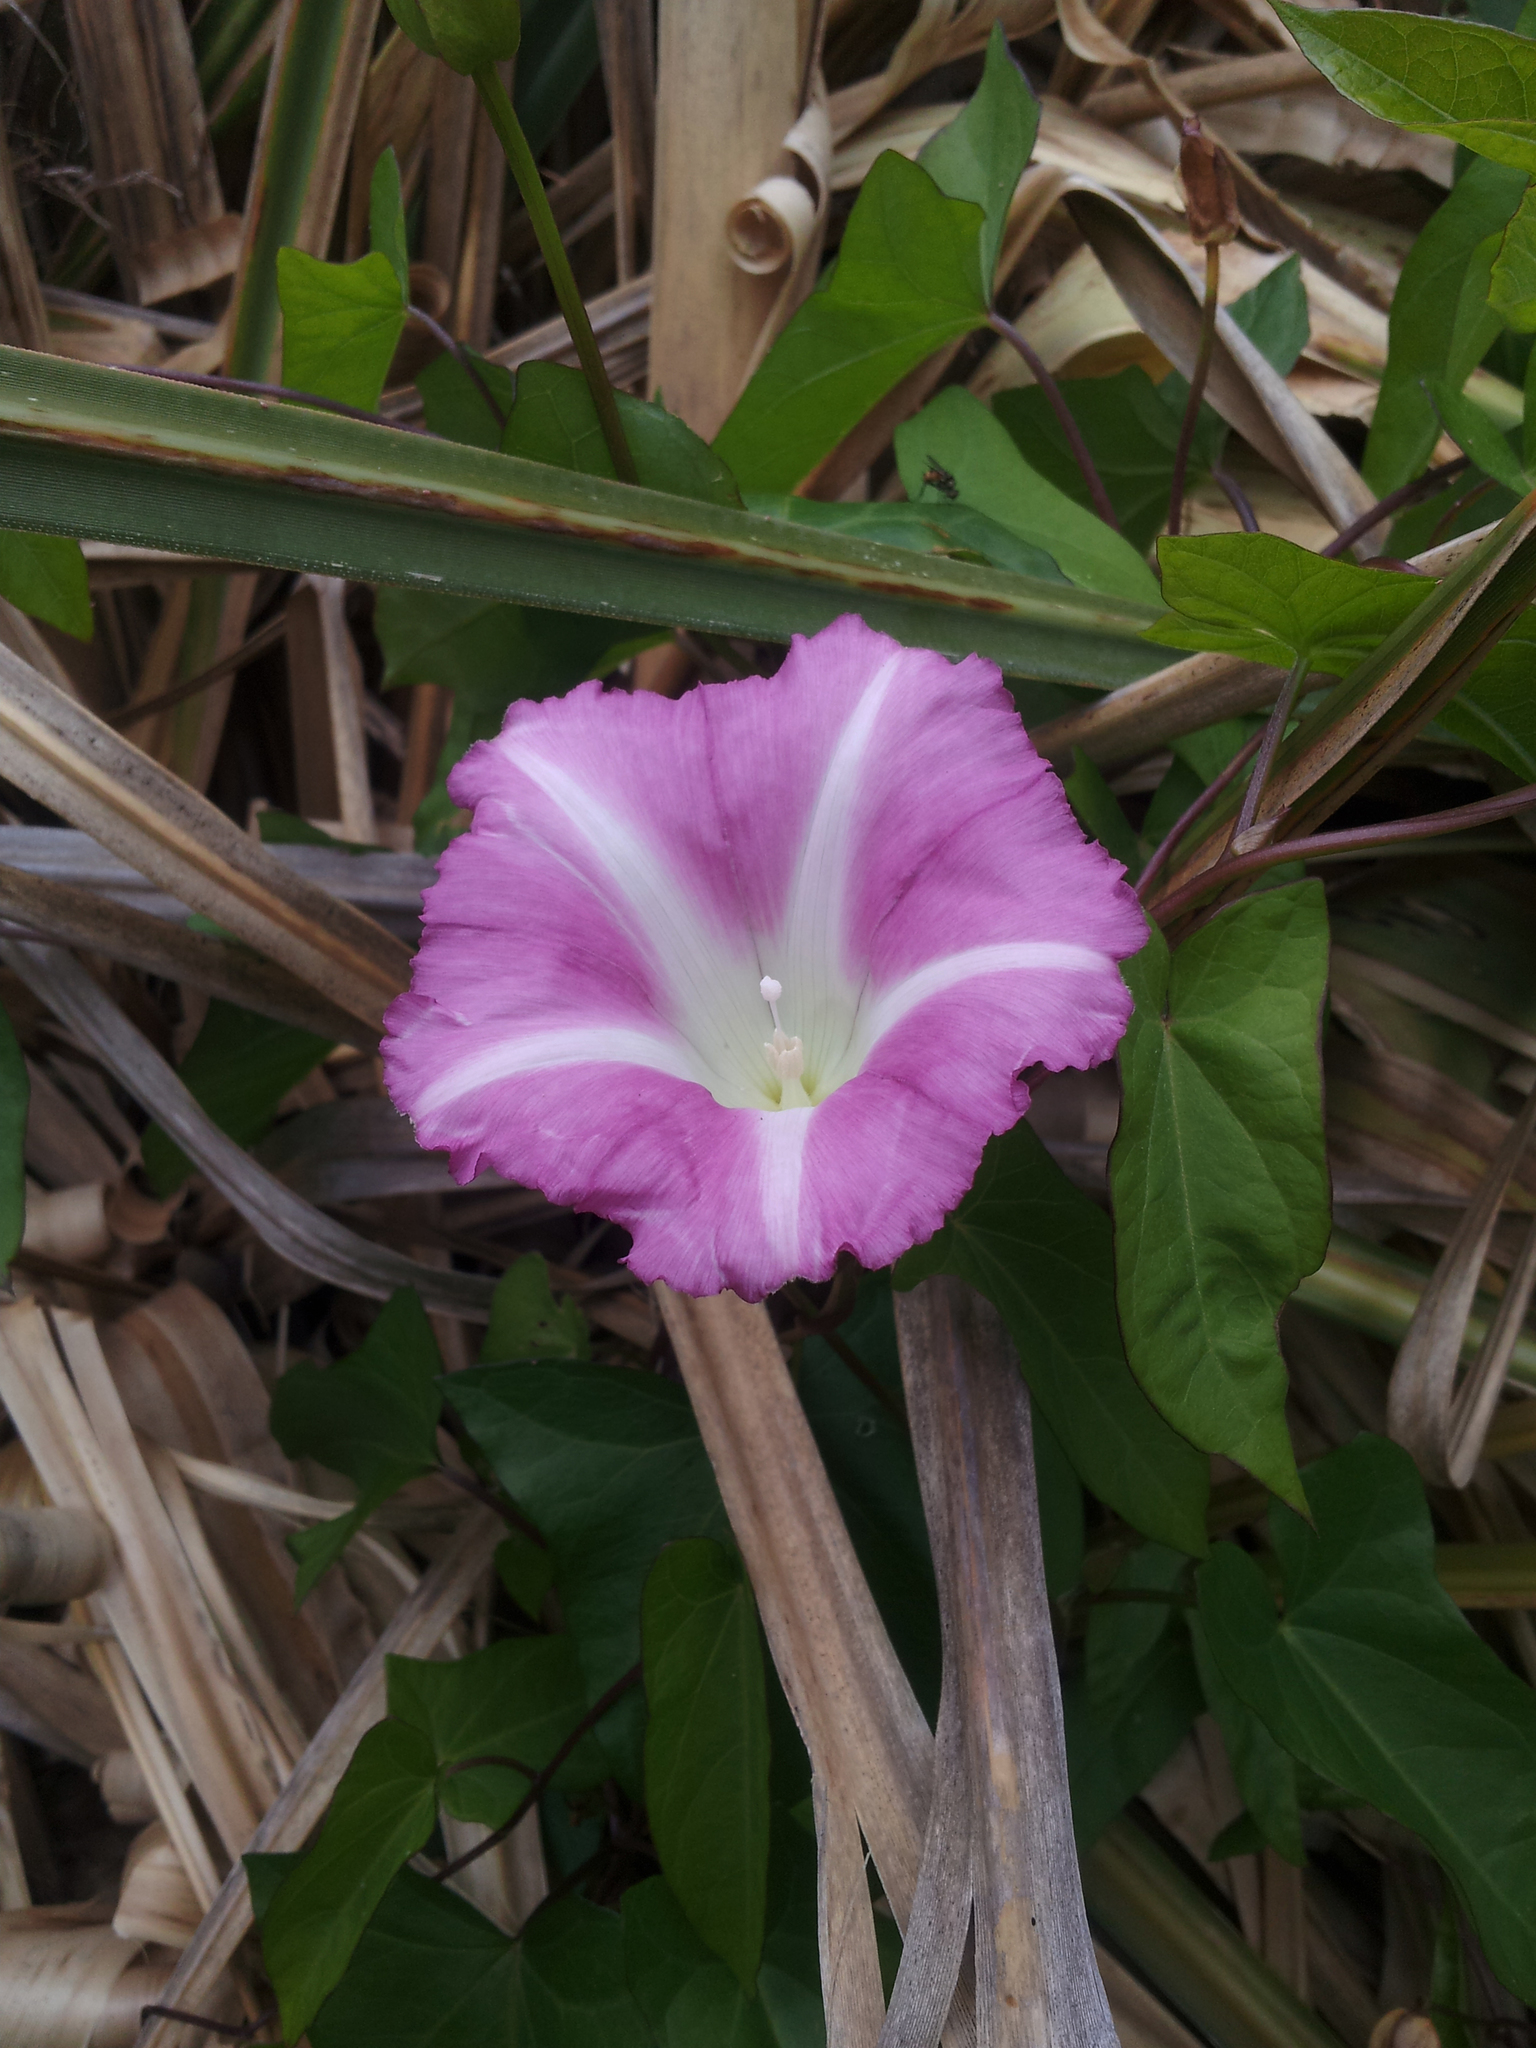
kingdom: Plantae
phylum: Tracheophyta
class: Magnoliopsida
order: Solanales
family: Convolvulaceae
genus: Calystegia
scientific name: Calystegia sepium
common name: Hedge bindweed
